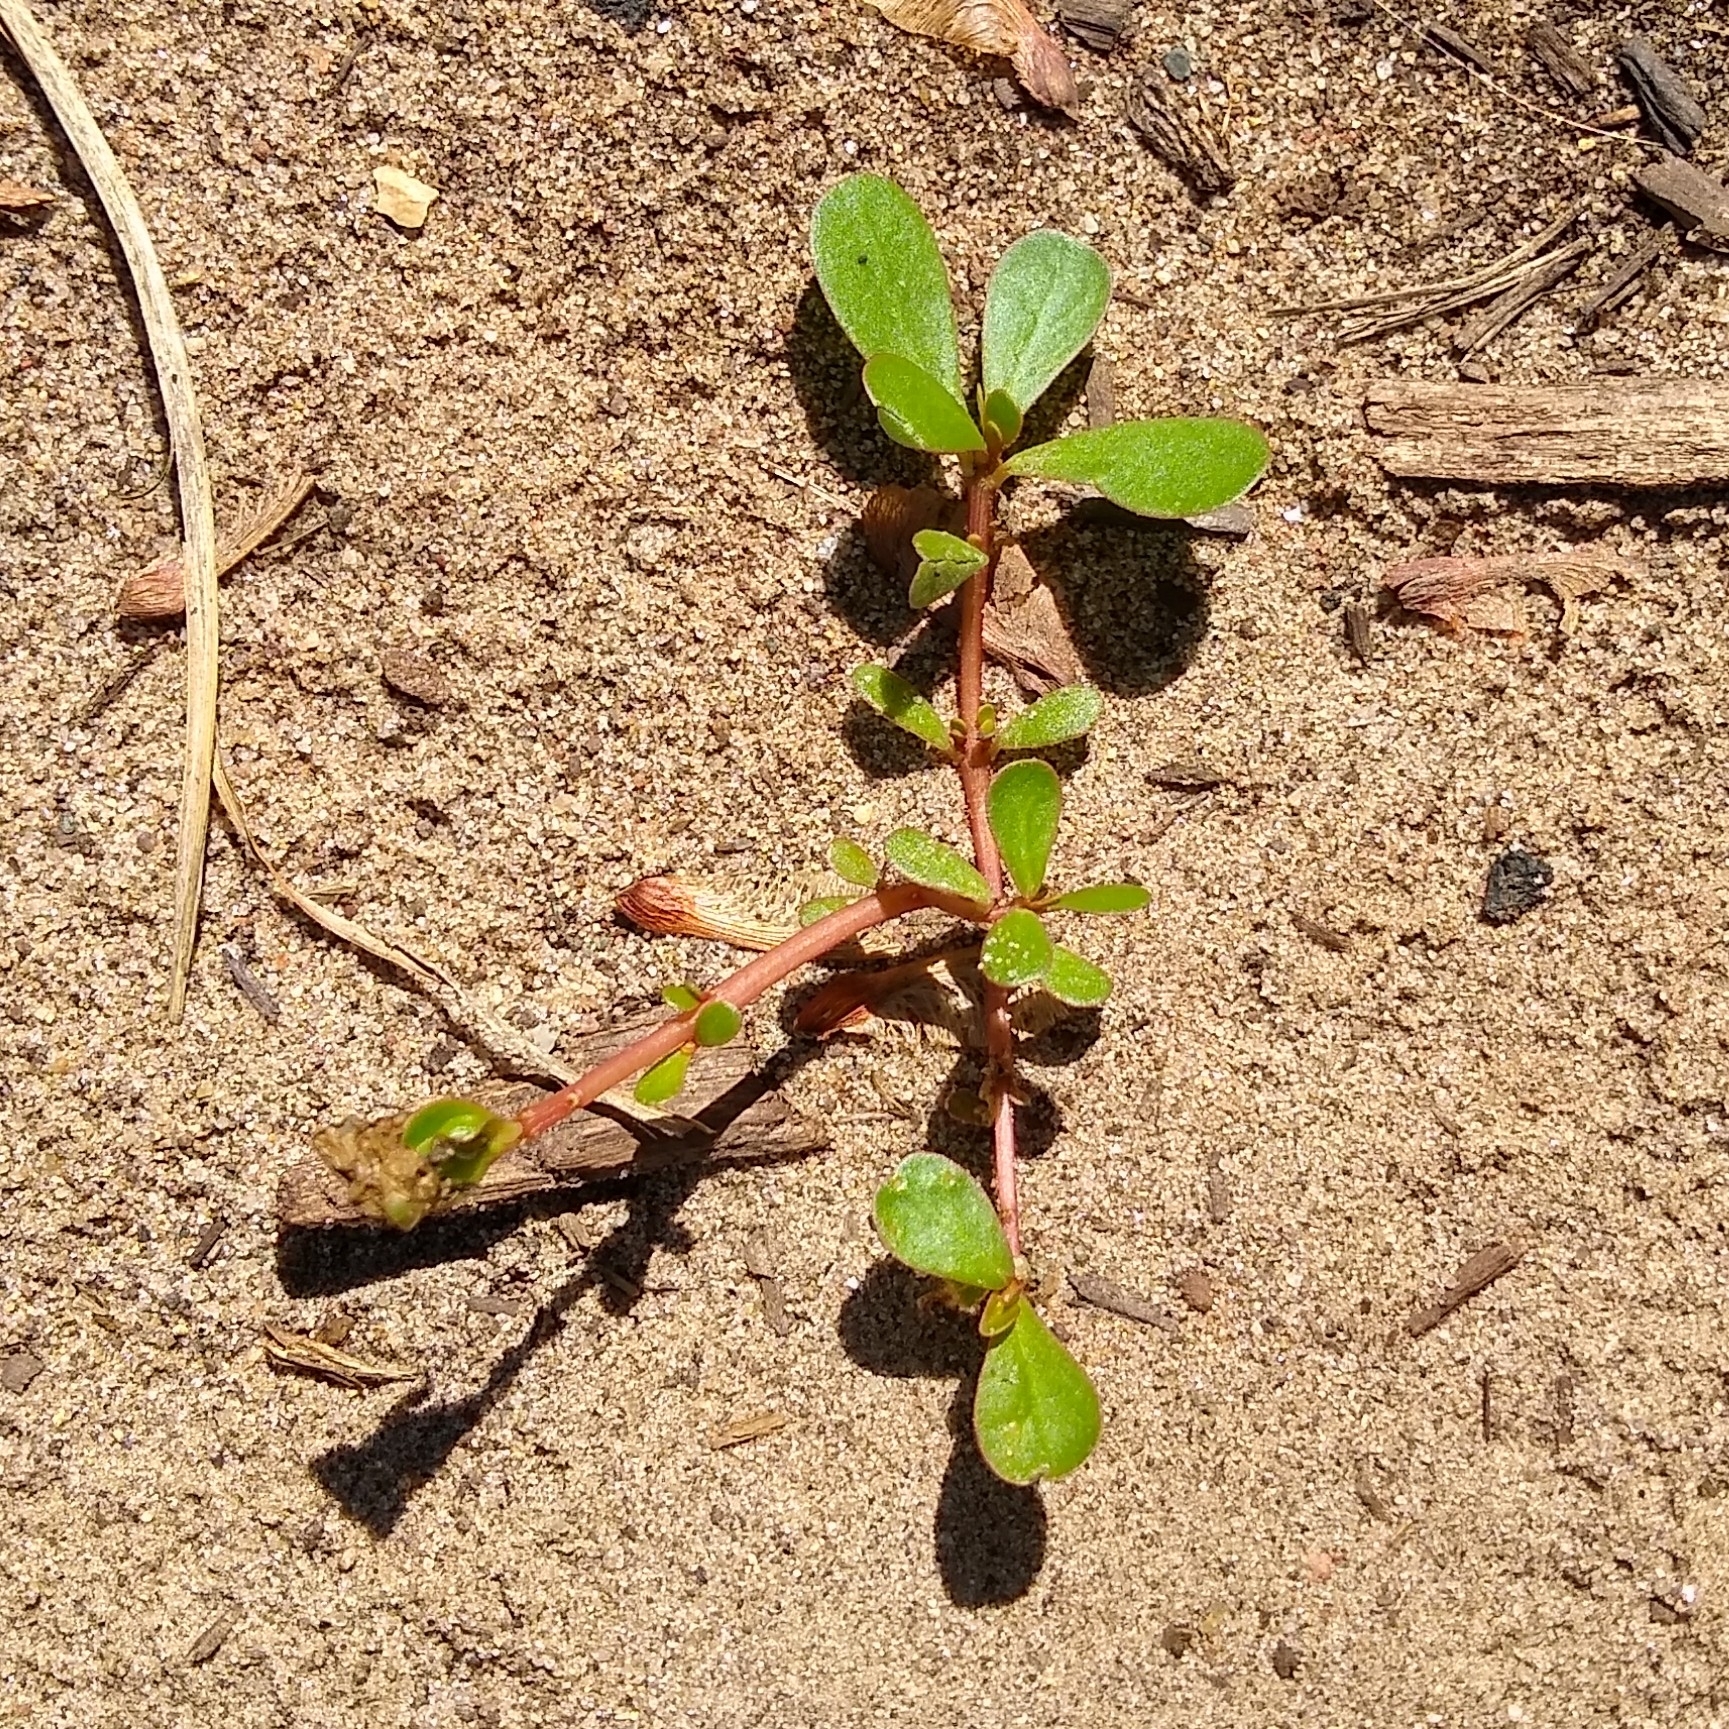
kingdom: Plantae
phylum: Tracheophyta
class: Magnoliopsida
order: Caryophyllales
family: Portulacaceae
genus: Portulaca
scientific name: Portulaca oleracea
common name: Common purslane
